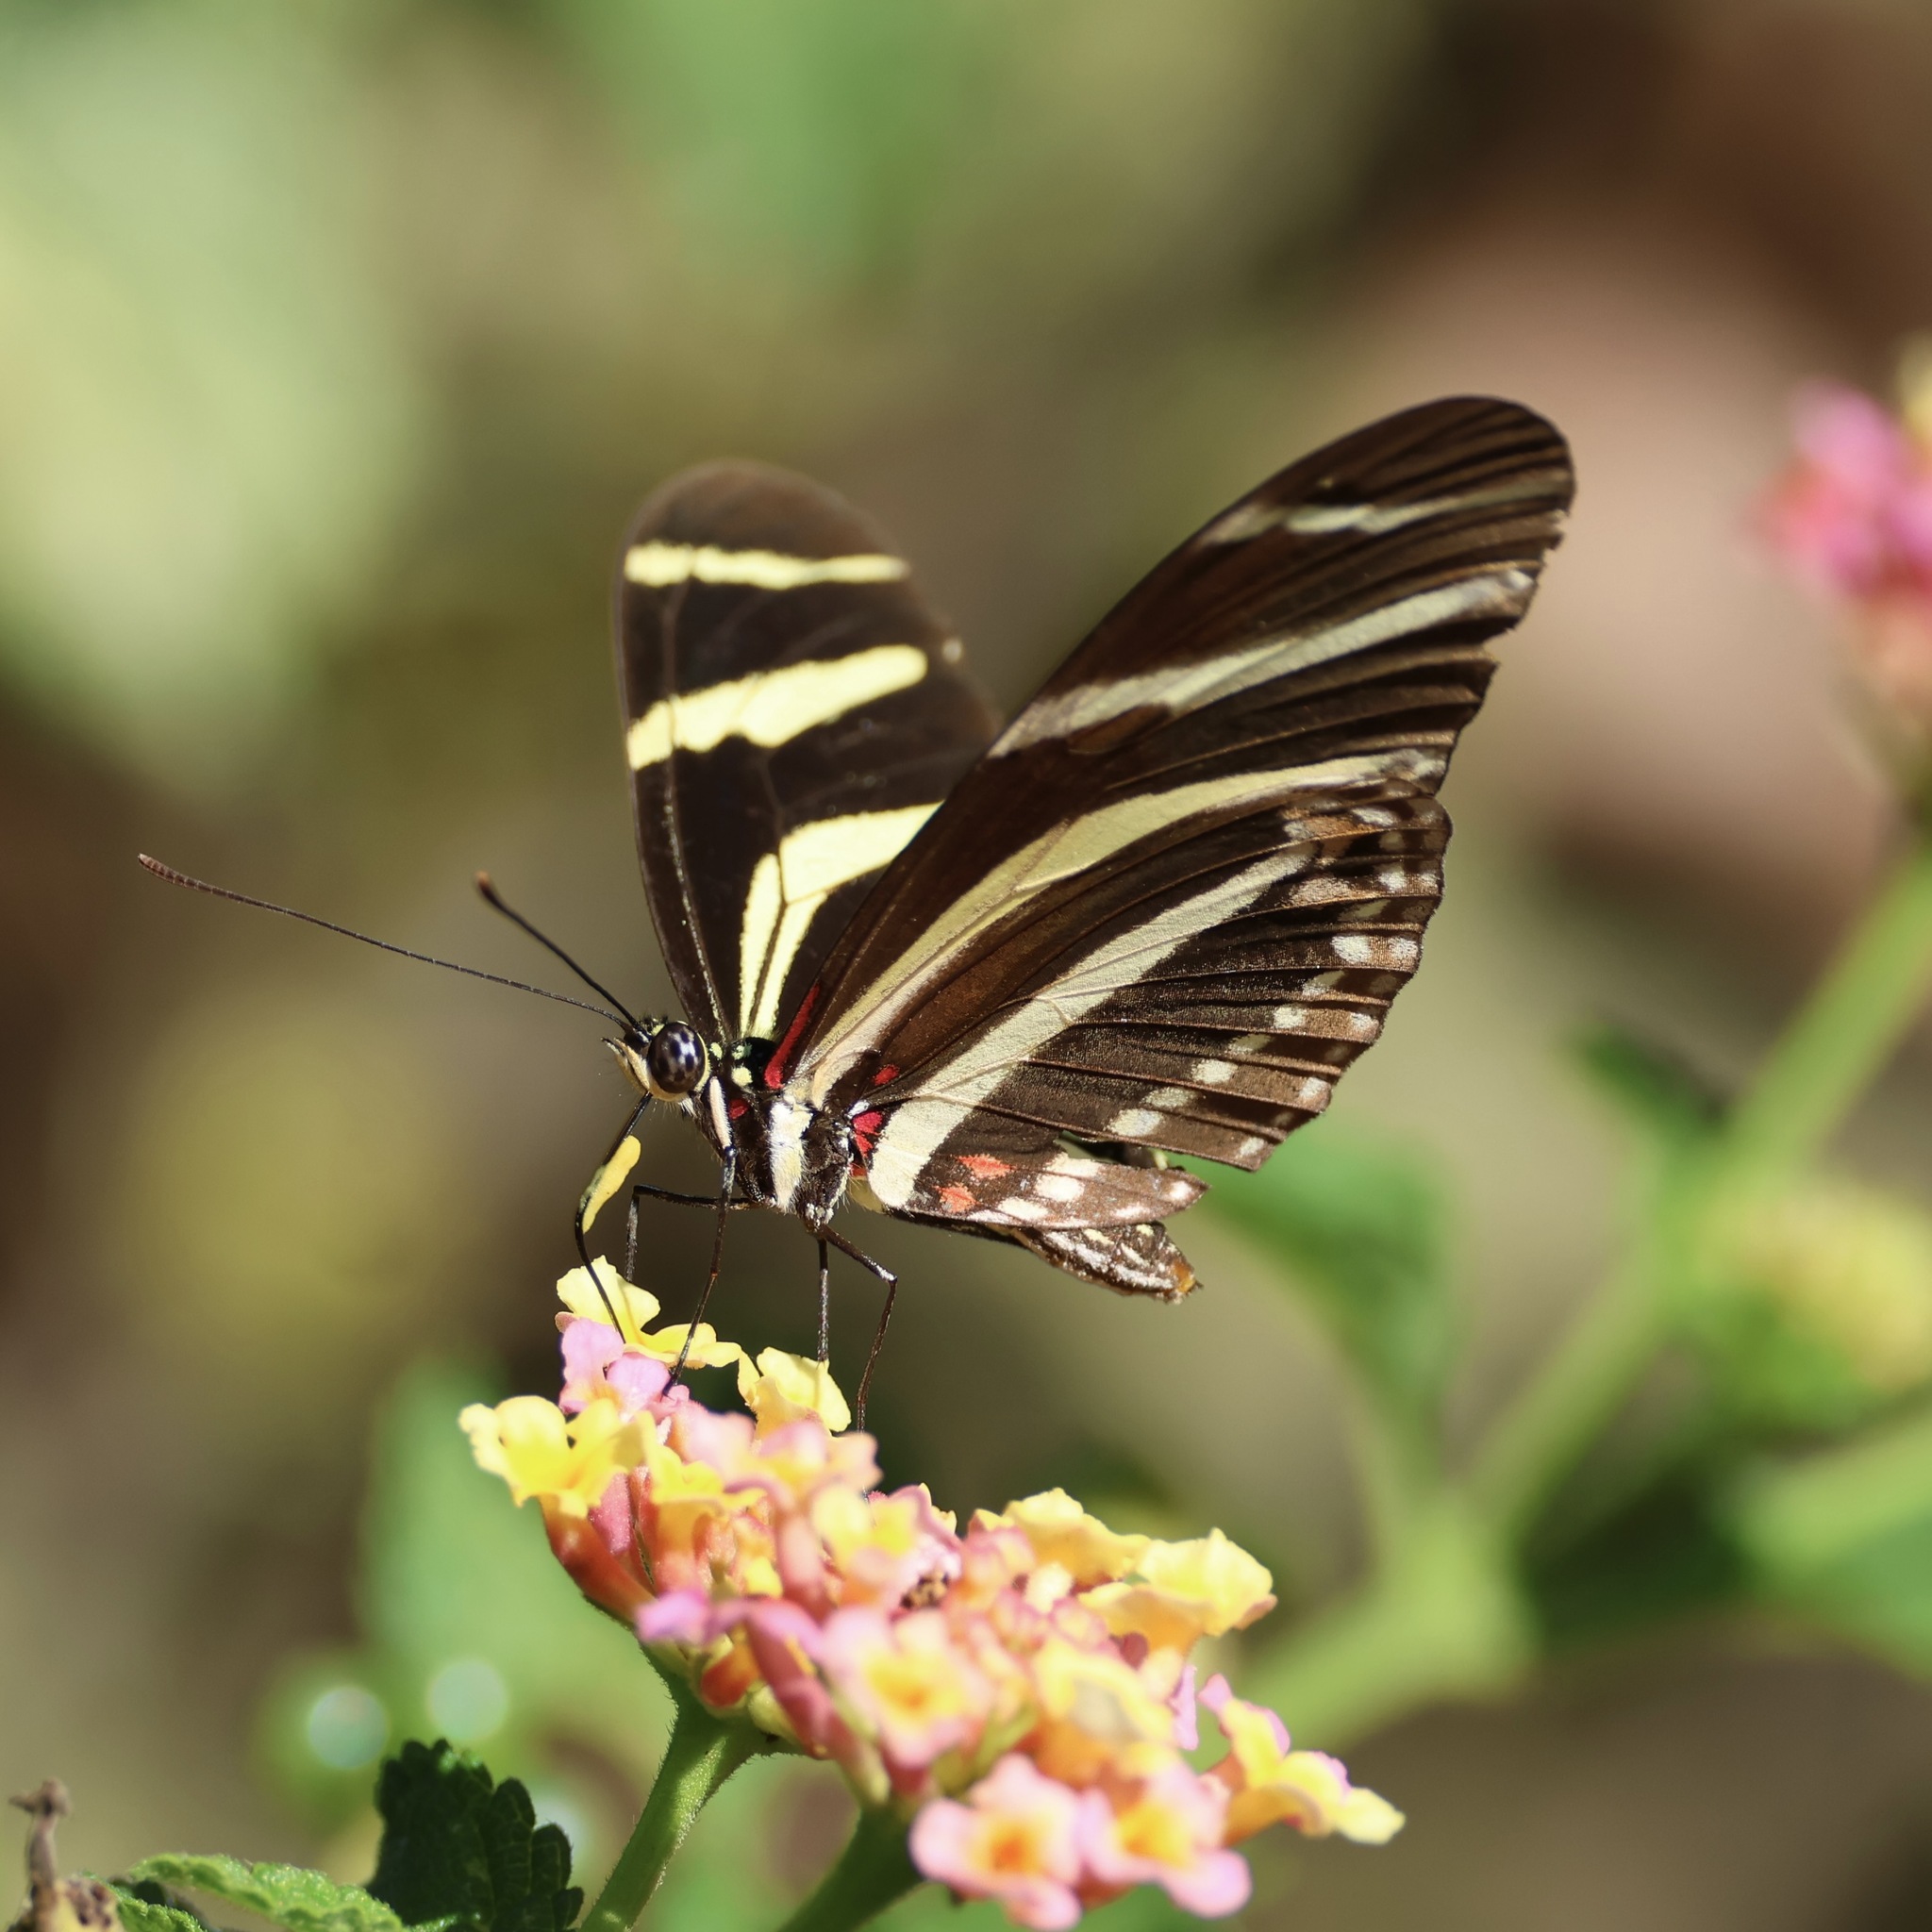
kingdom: Animalia
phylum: Arthropoda
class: Insecta
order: Lepidoptera
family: Nymphalidae
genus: Heliconius
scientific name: Heliconius charithonia
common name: Zebra long wing
